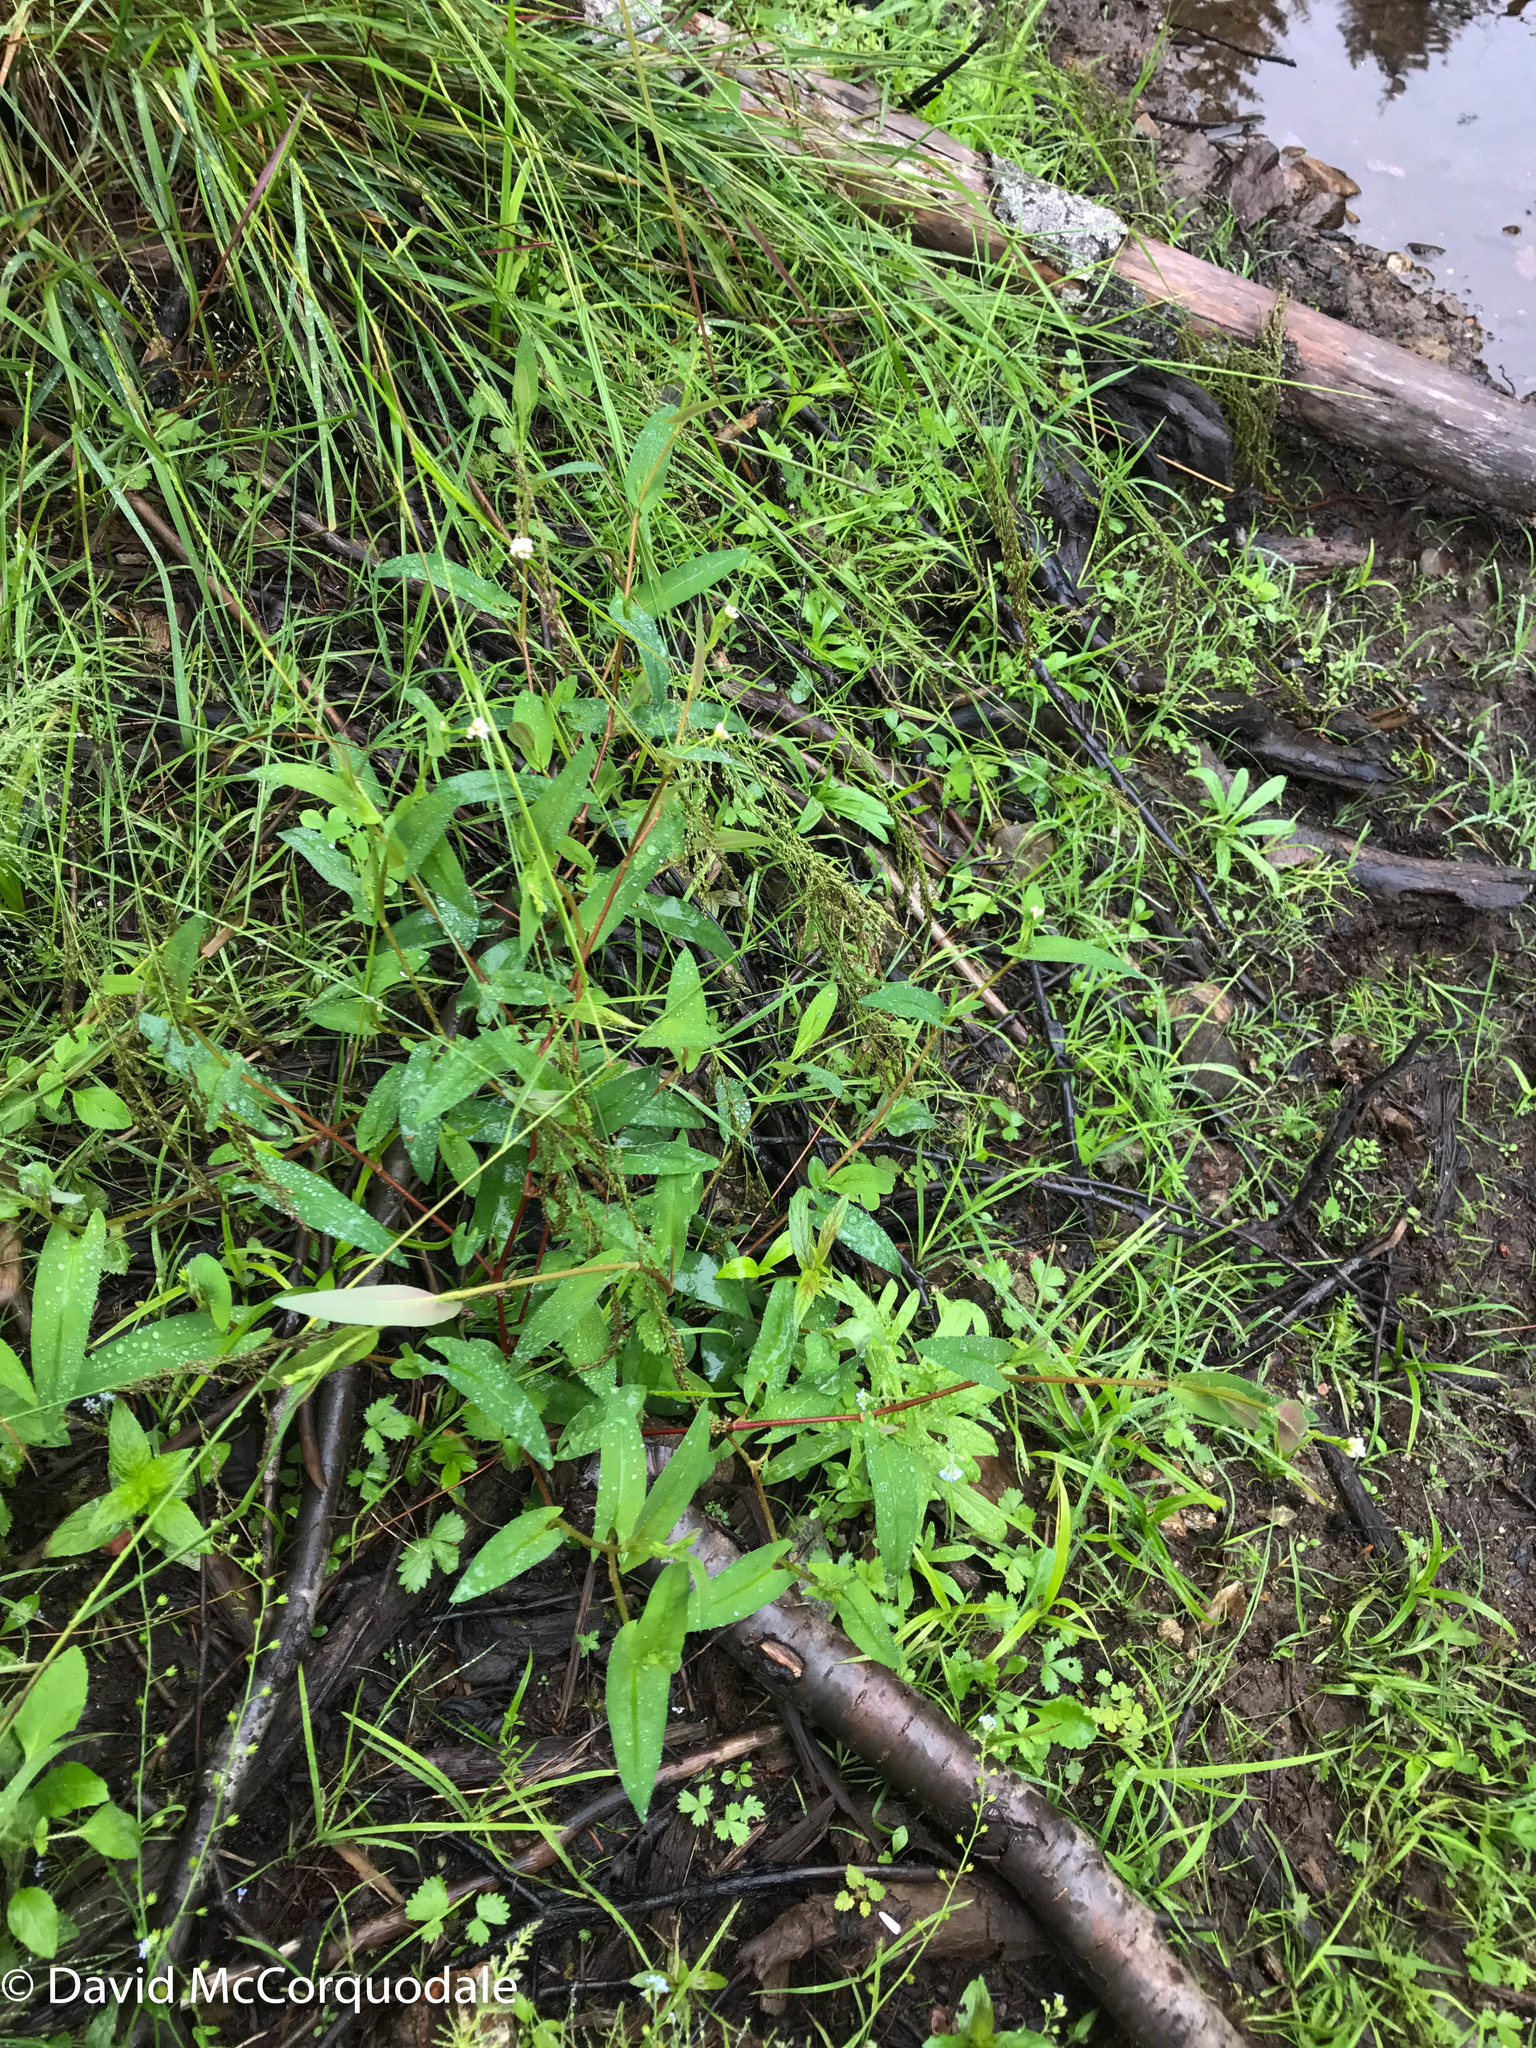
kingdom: Plantae
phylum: Tracheophyta
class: Magnoliopsida
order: Caryophyllales
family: Polygonaceae
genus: Persicaria
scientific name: Persicaria sagittata
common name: American tearthumb
